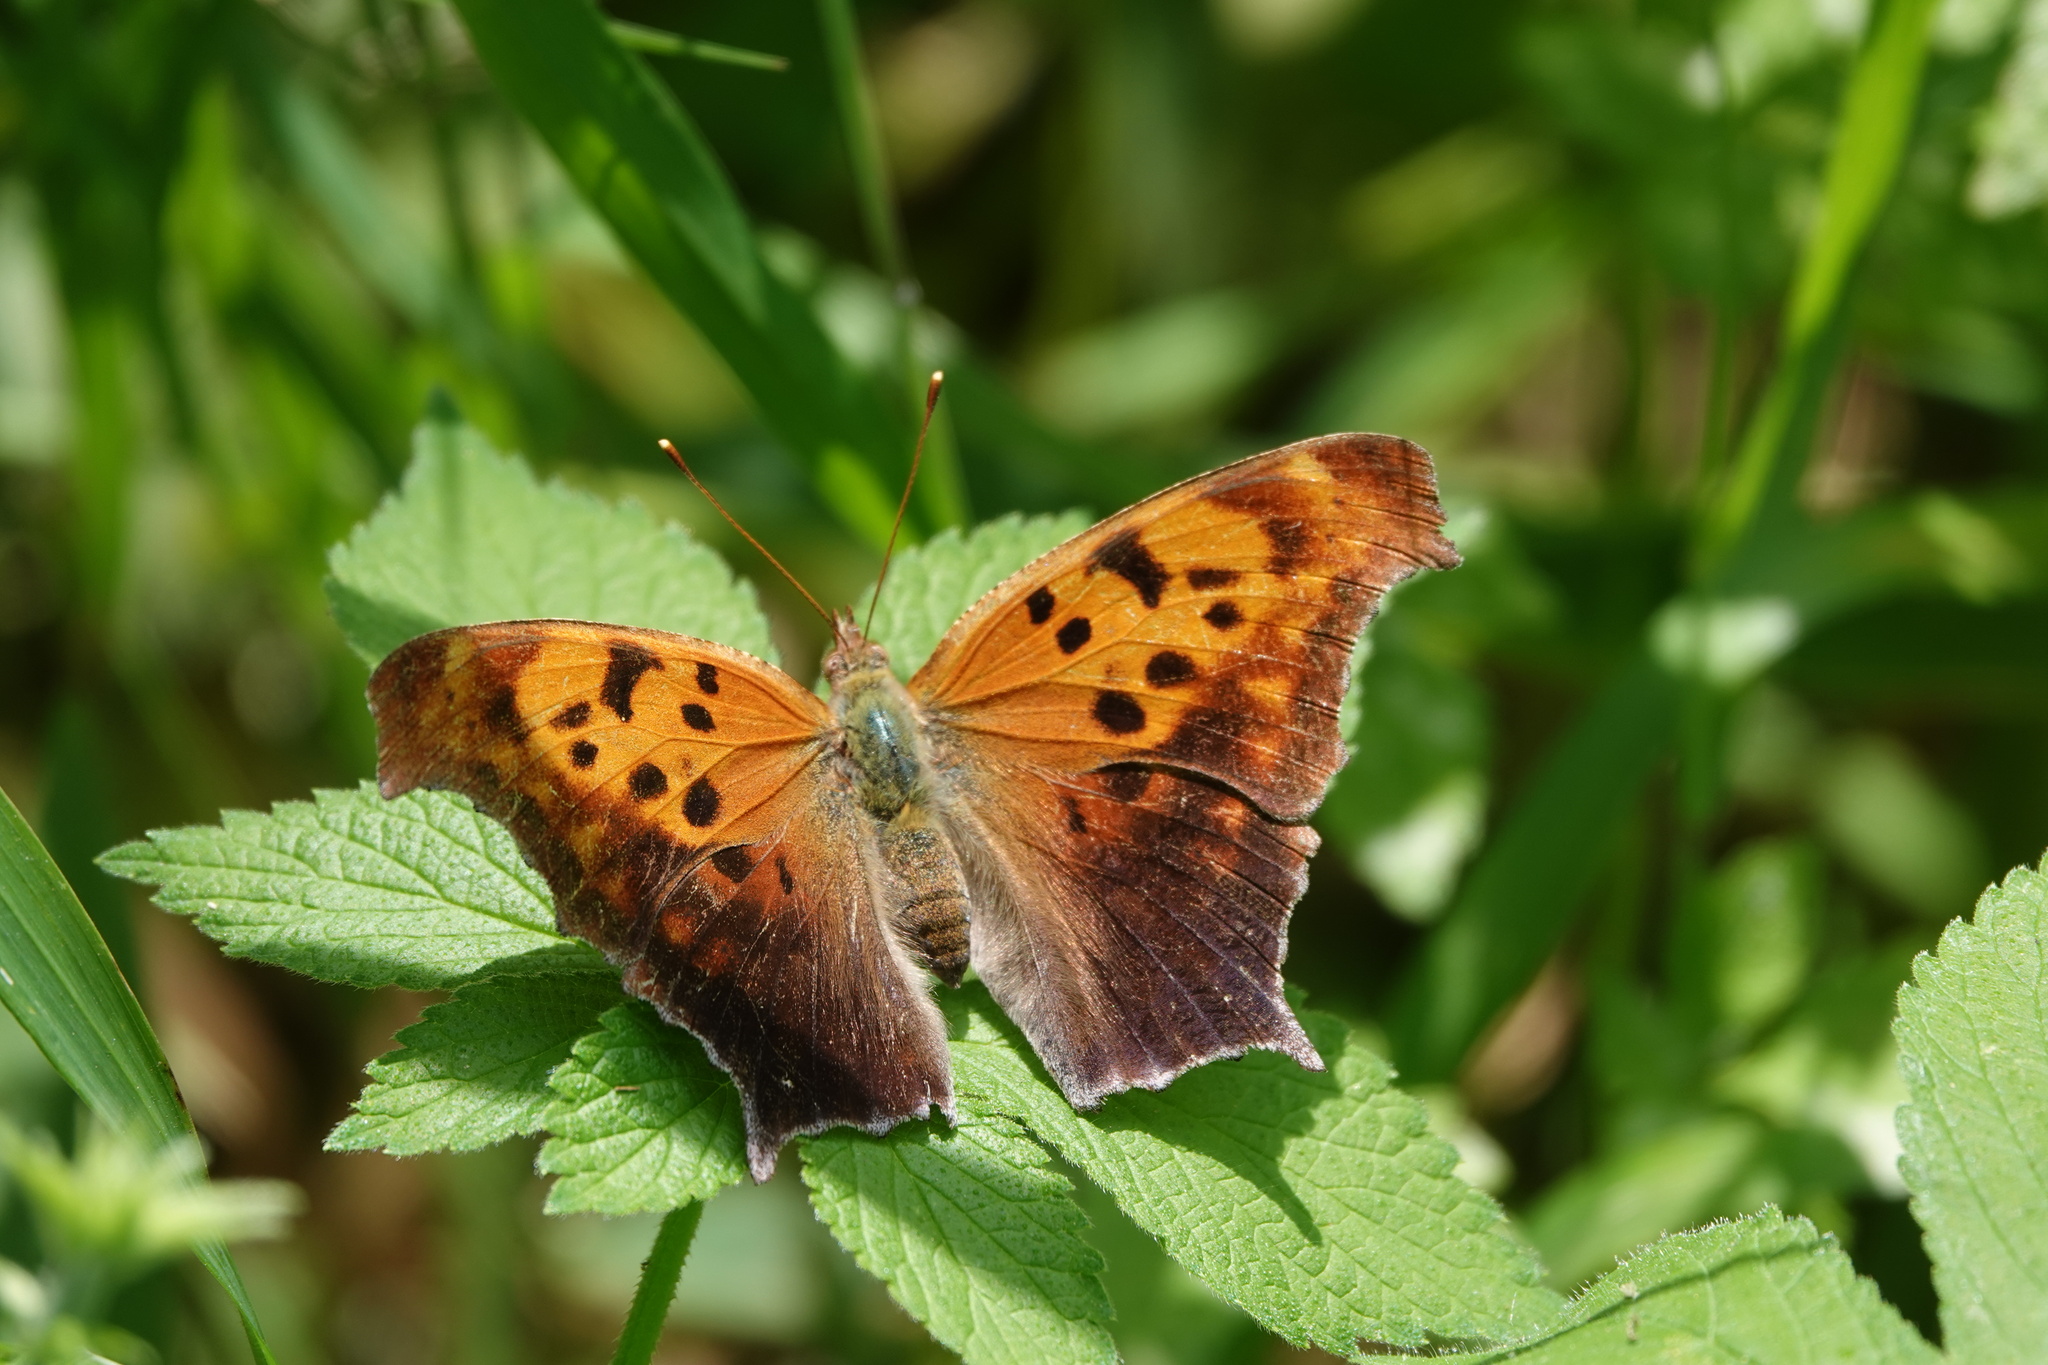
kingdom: Animalia
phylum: Arthropoda
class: Insecta
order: Lepidoptera
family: Nymphalidae
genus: Polygonia
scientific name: Polygonia interrogationis
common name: Question mark
